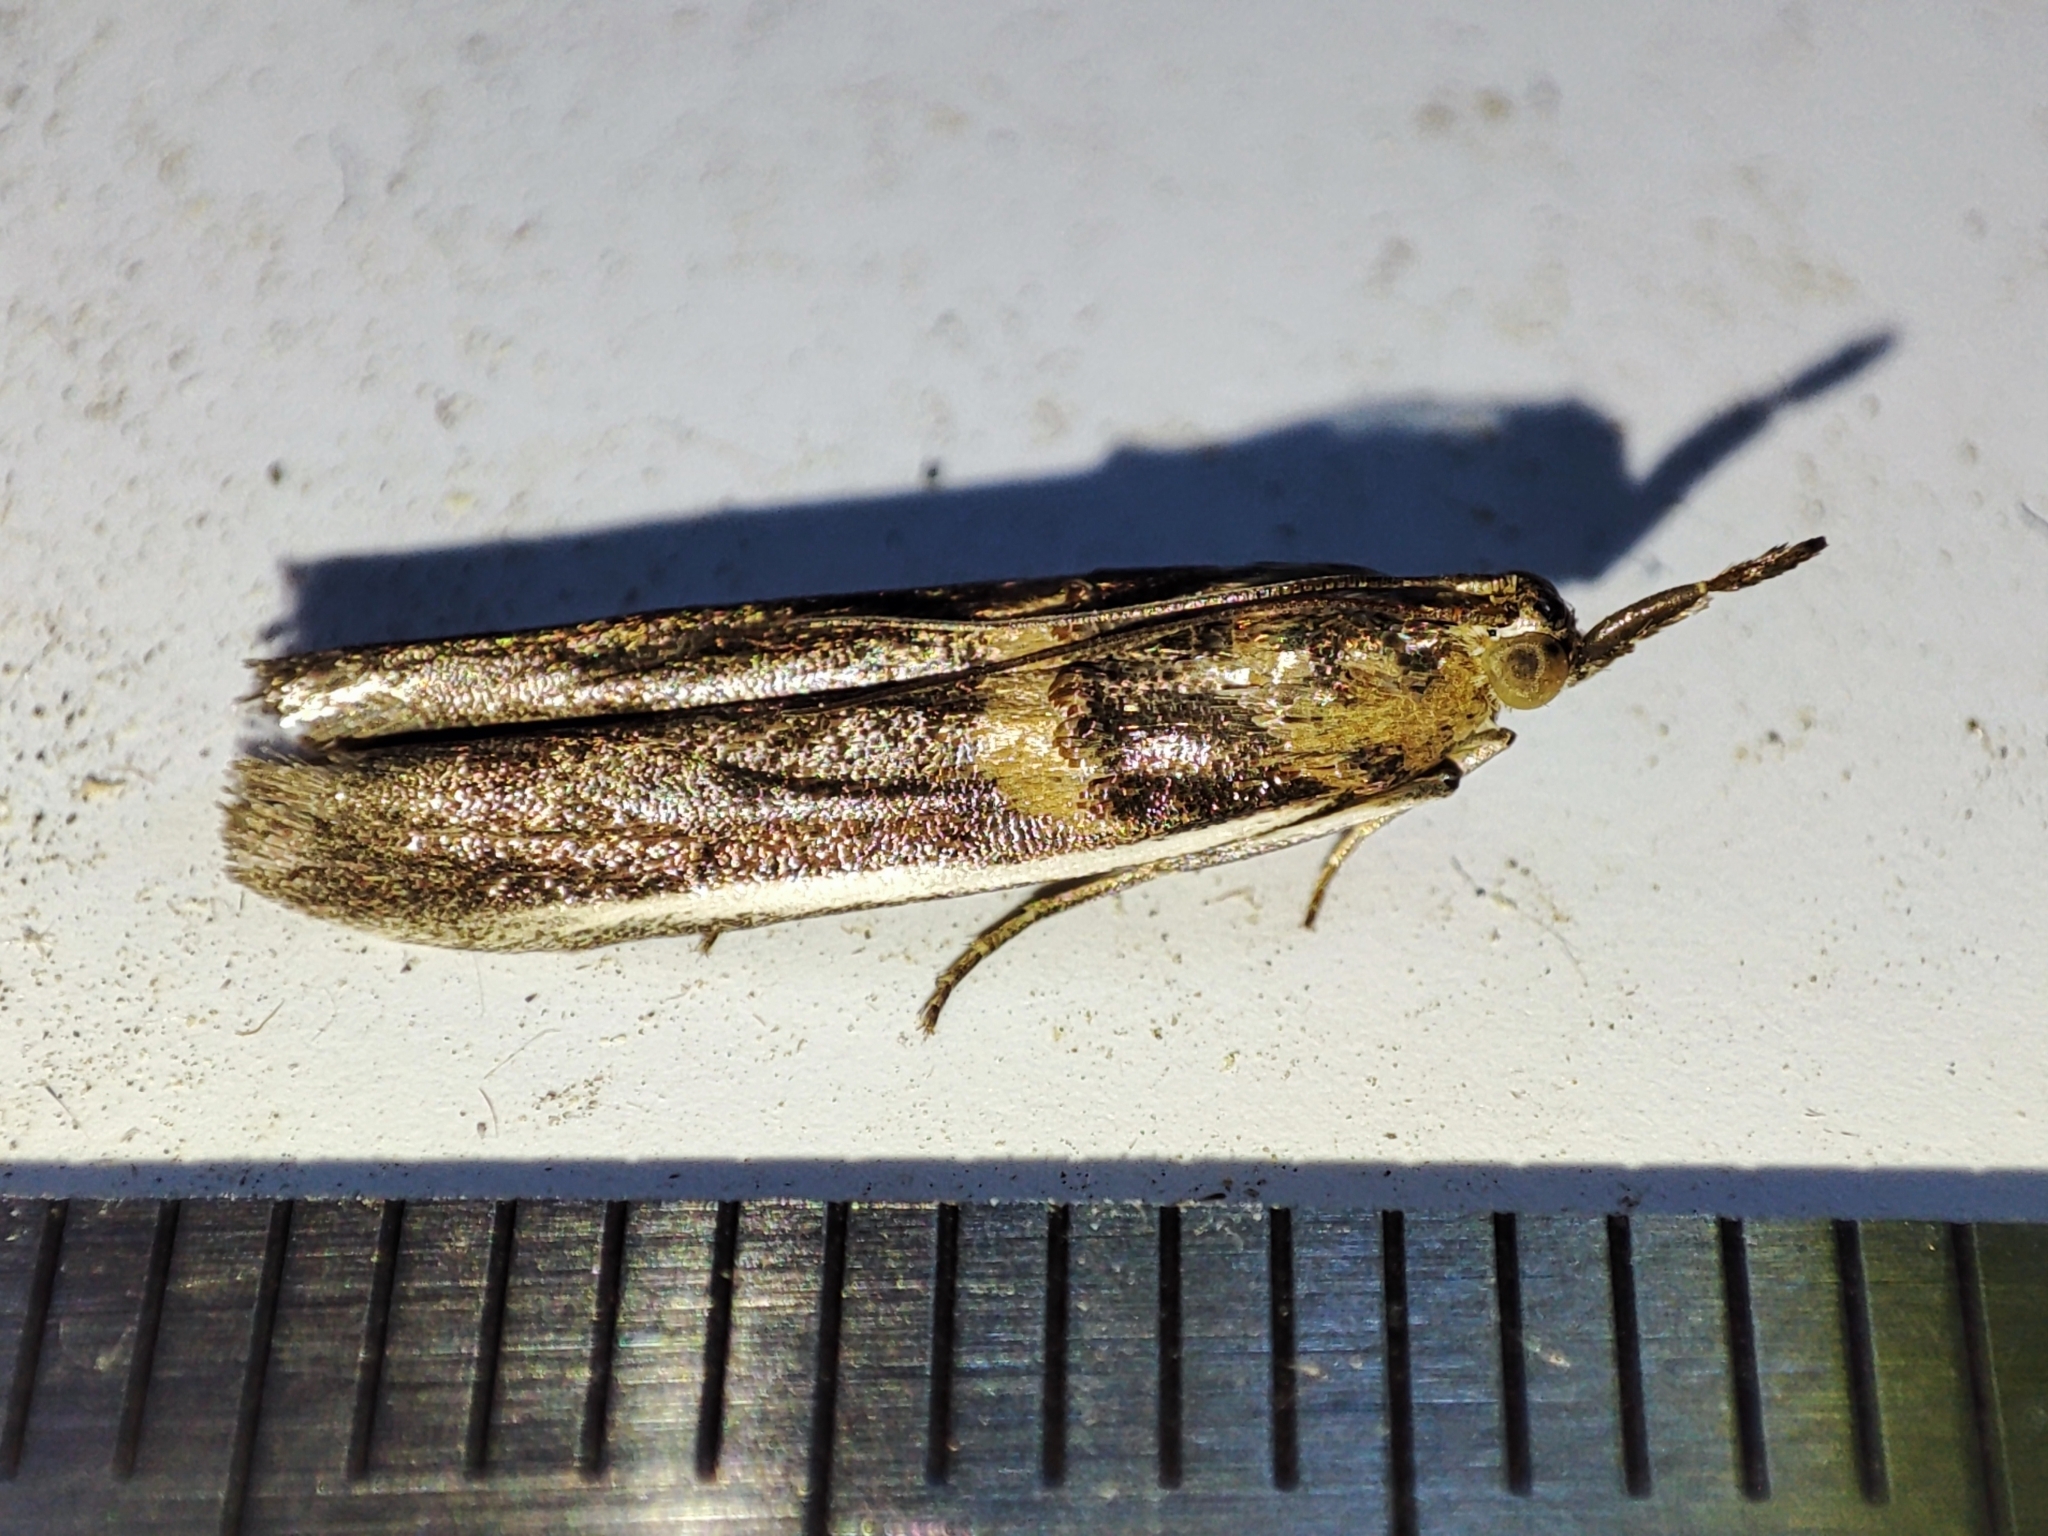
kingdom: Animalia
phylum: Arthropoda
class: Insecta
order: Lepidoptera
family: Pyralidae
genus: Etiella
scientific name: Etiella zinckenella
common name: Gold-banded etiella moth
